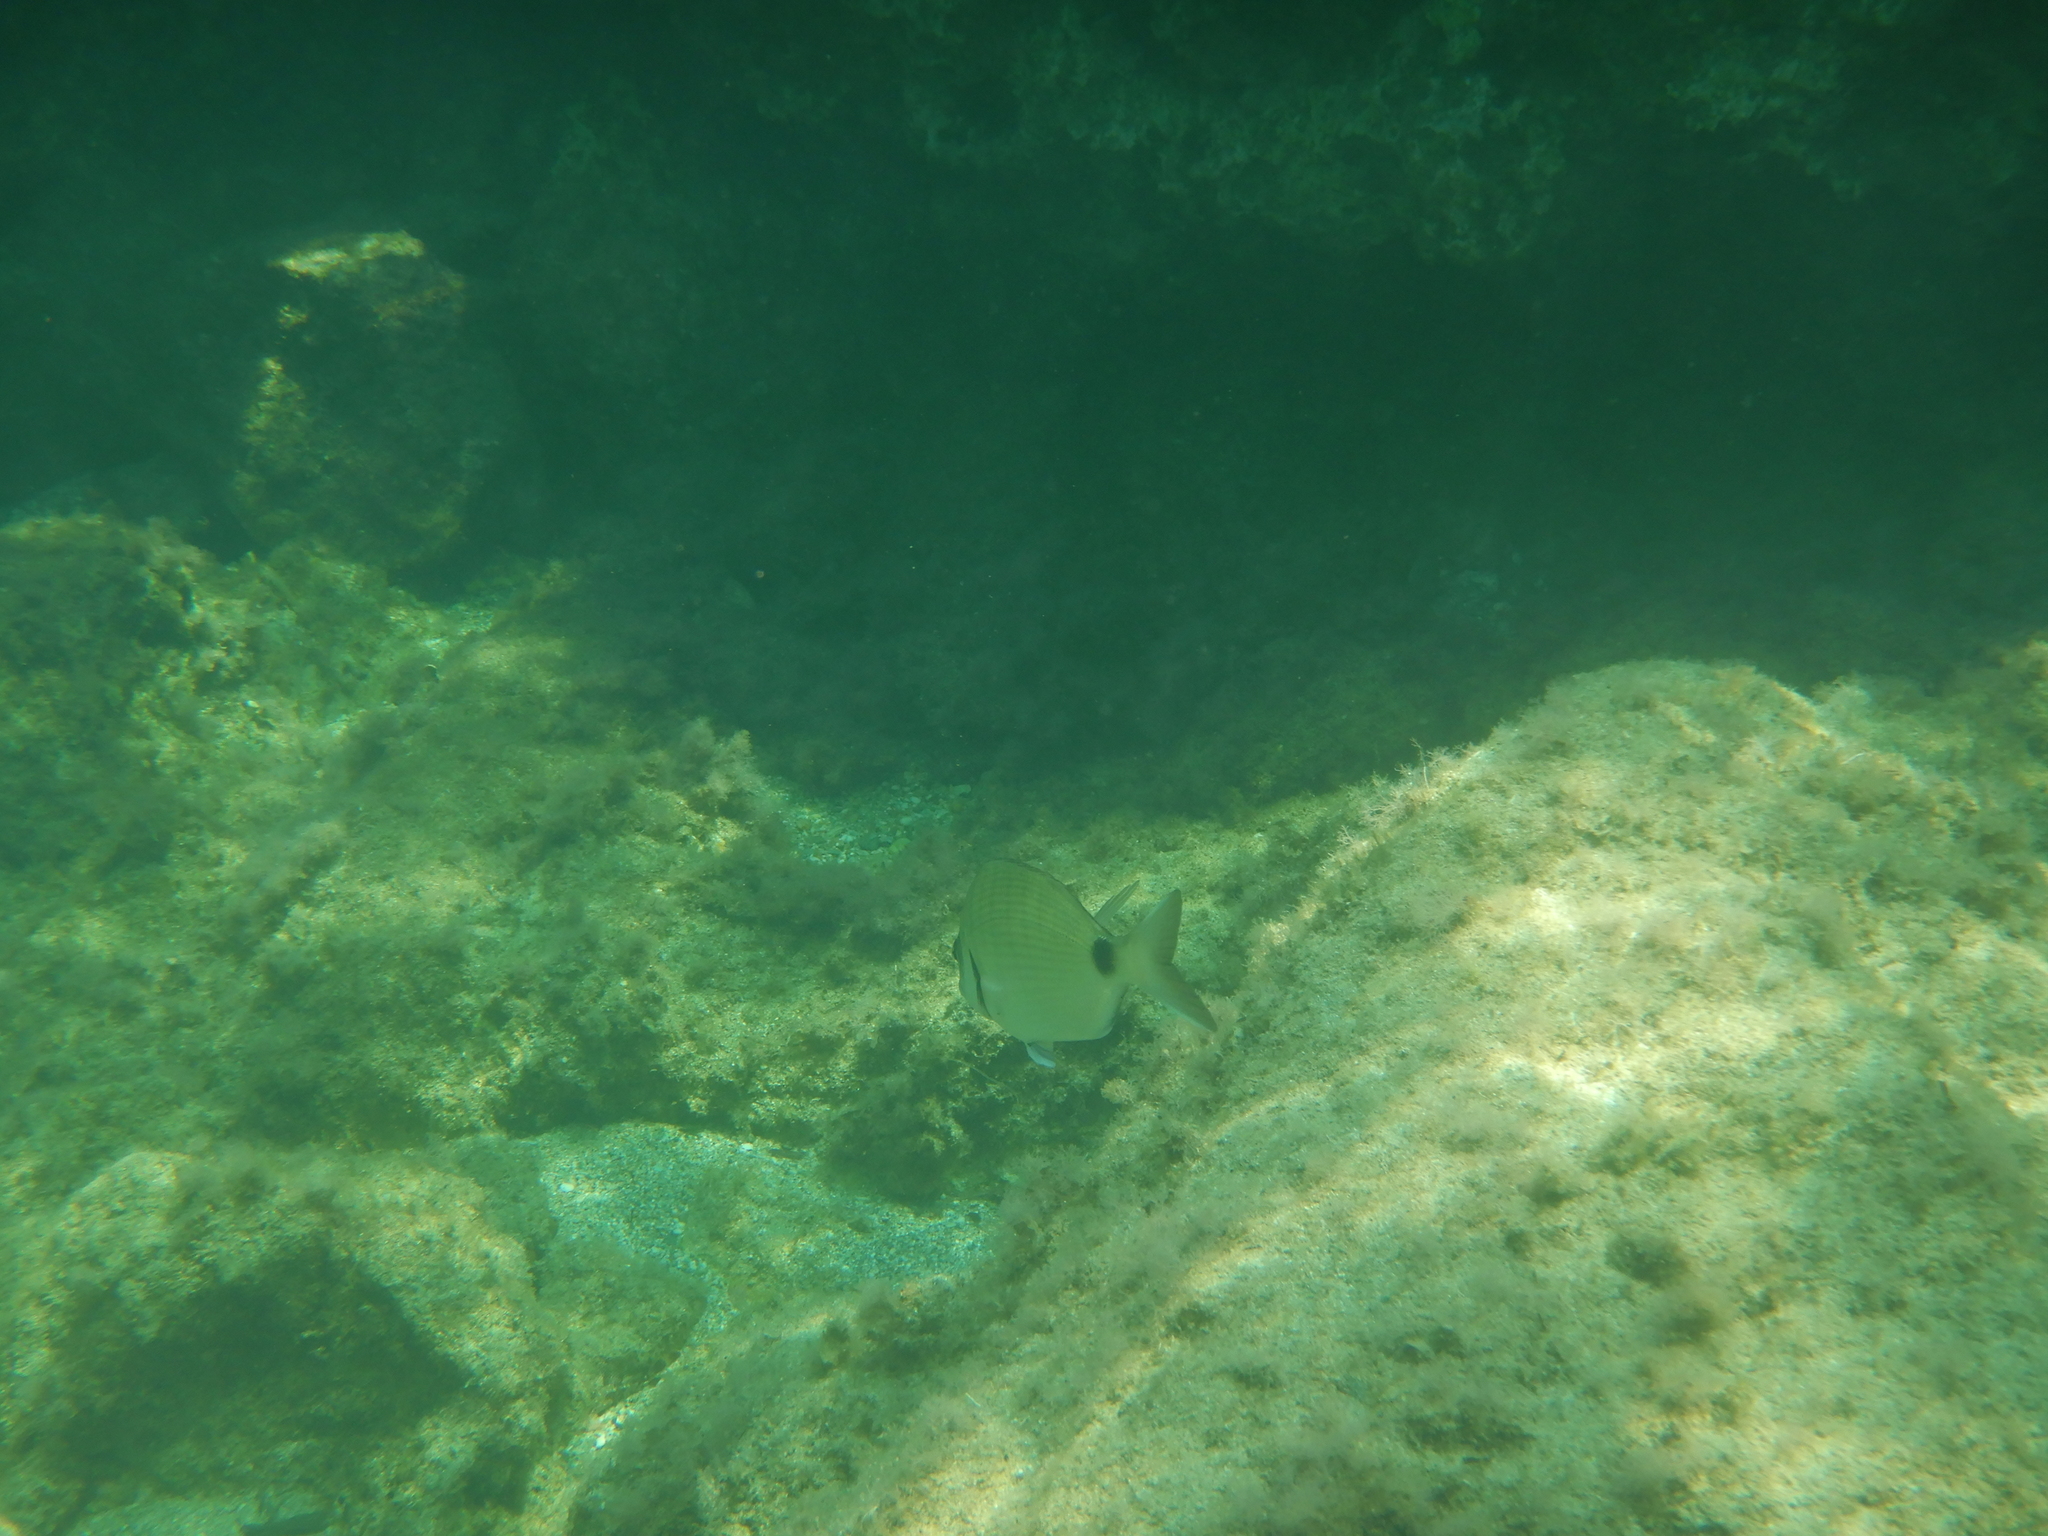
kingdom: Animalia
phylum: Chordata
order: Perciformes
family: Sparidae
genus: Diplodus
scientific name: Diplodus sargus
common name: White seabream
